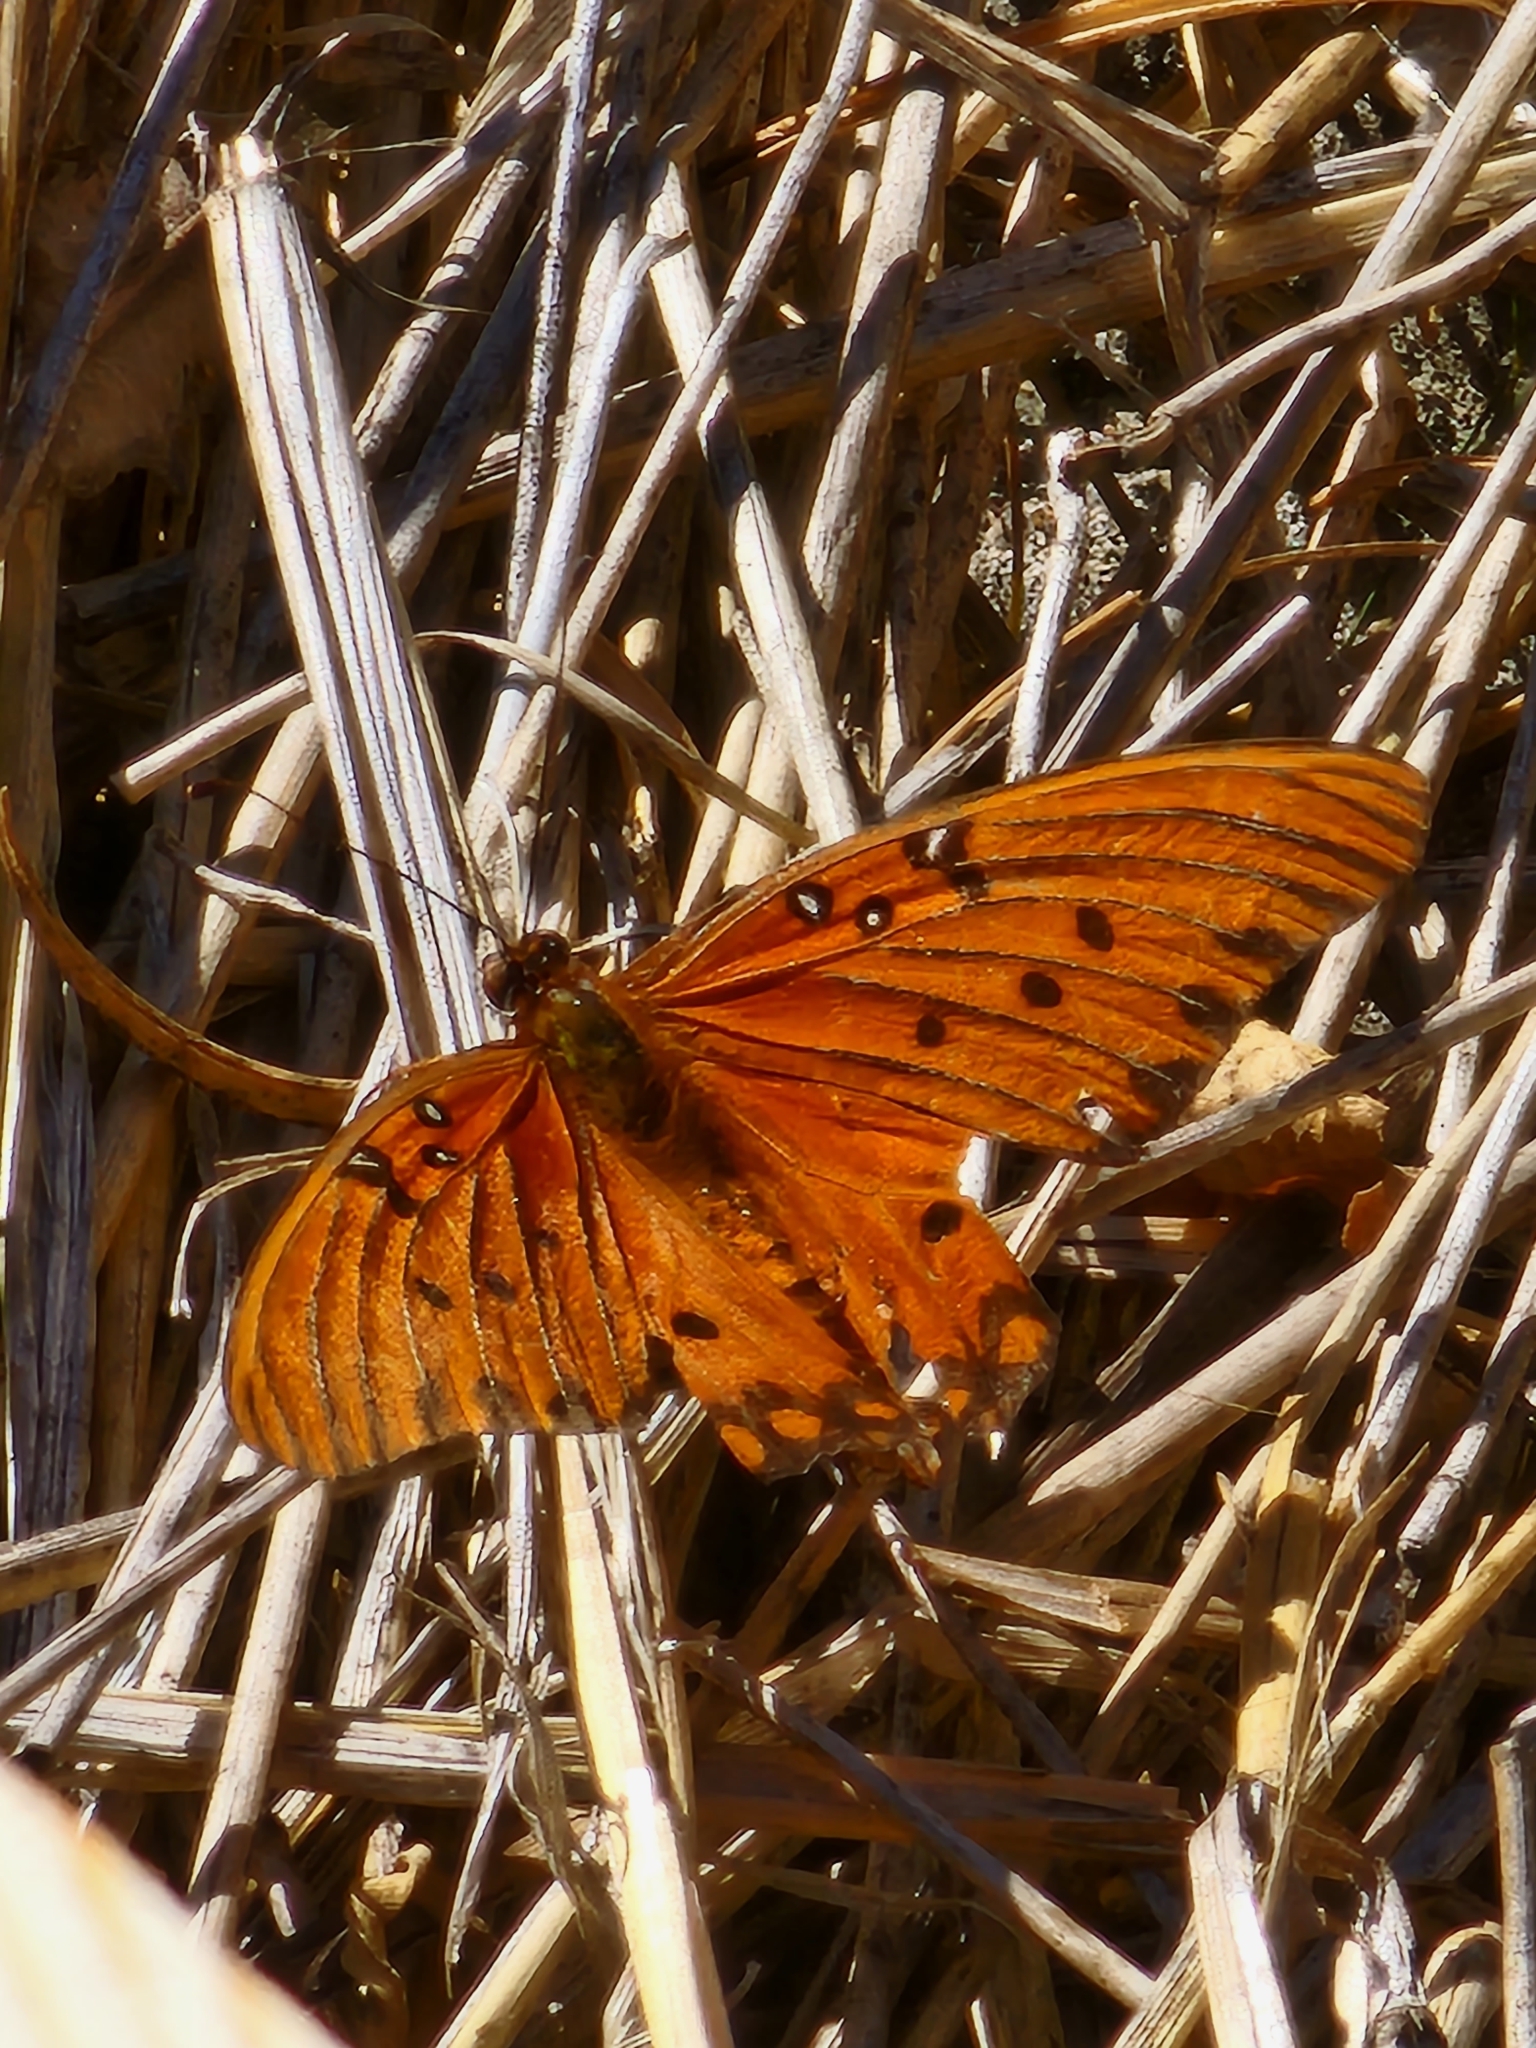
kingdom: Animalia
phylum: Arthropoda
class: Insecta
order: Lepidoptera
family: Nymphalidae
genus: Dione
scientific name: Dione vanillae
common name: Gulf fritillary
